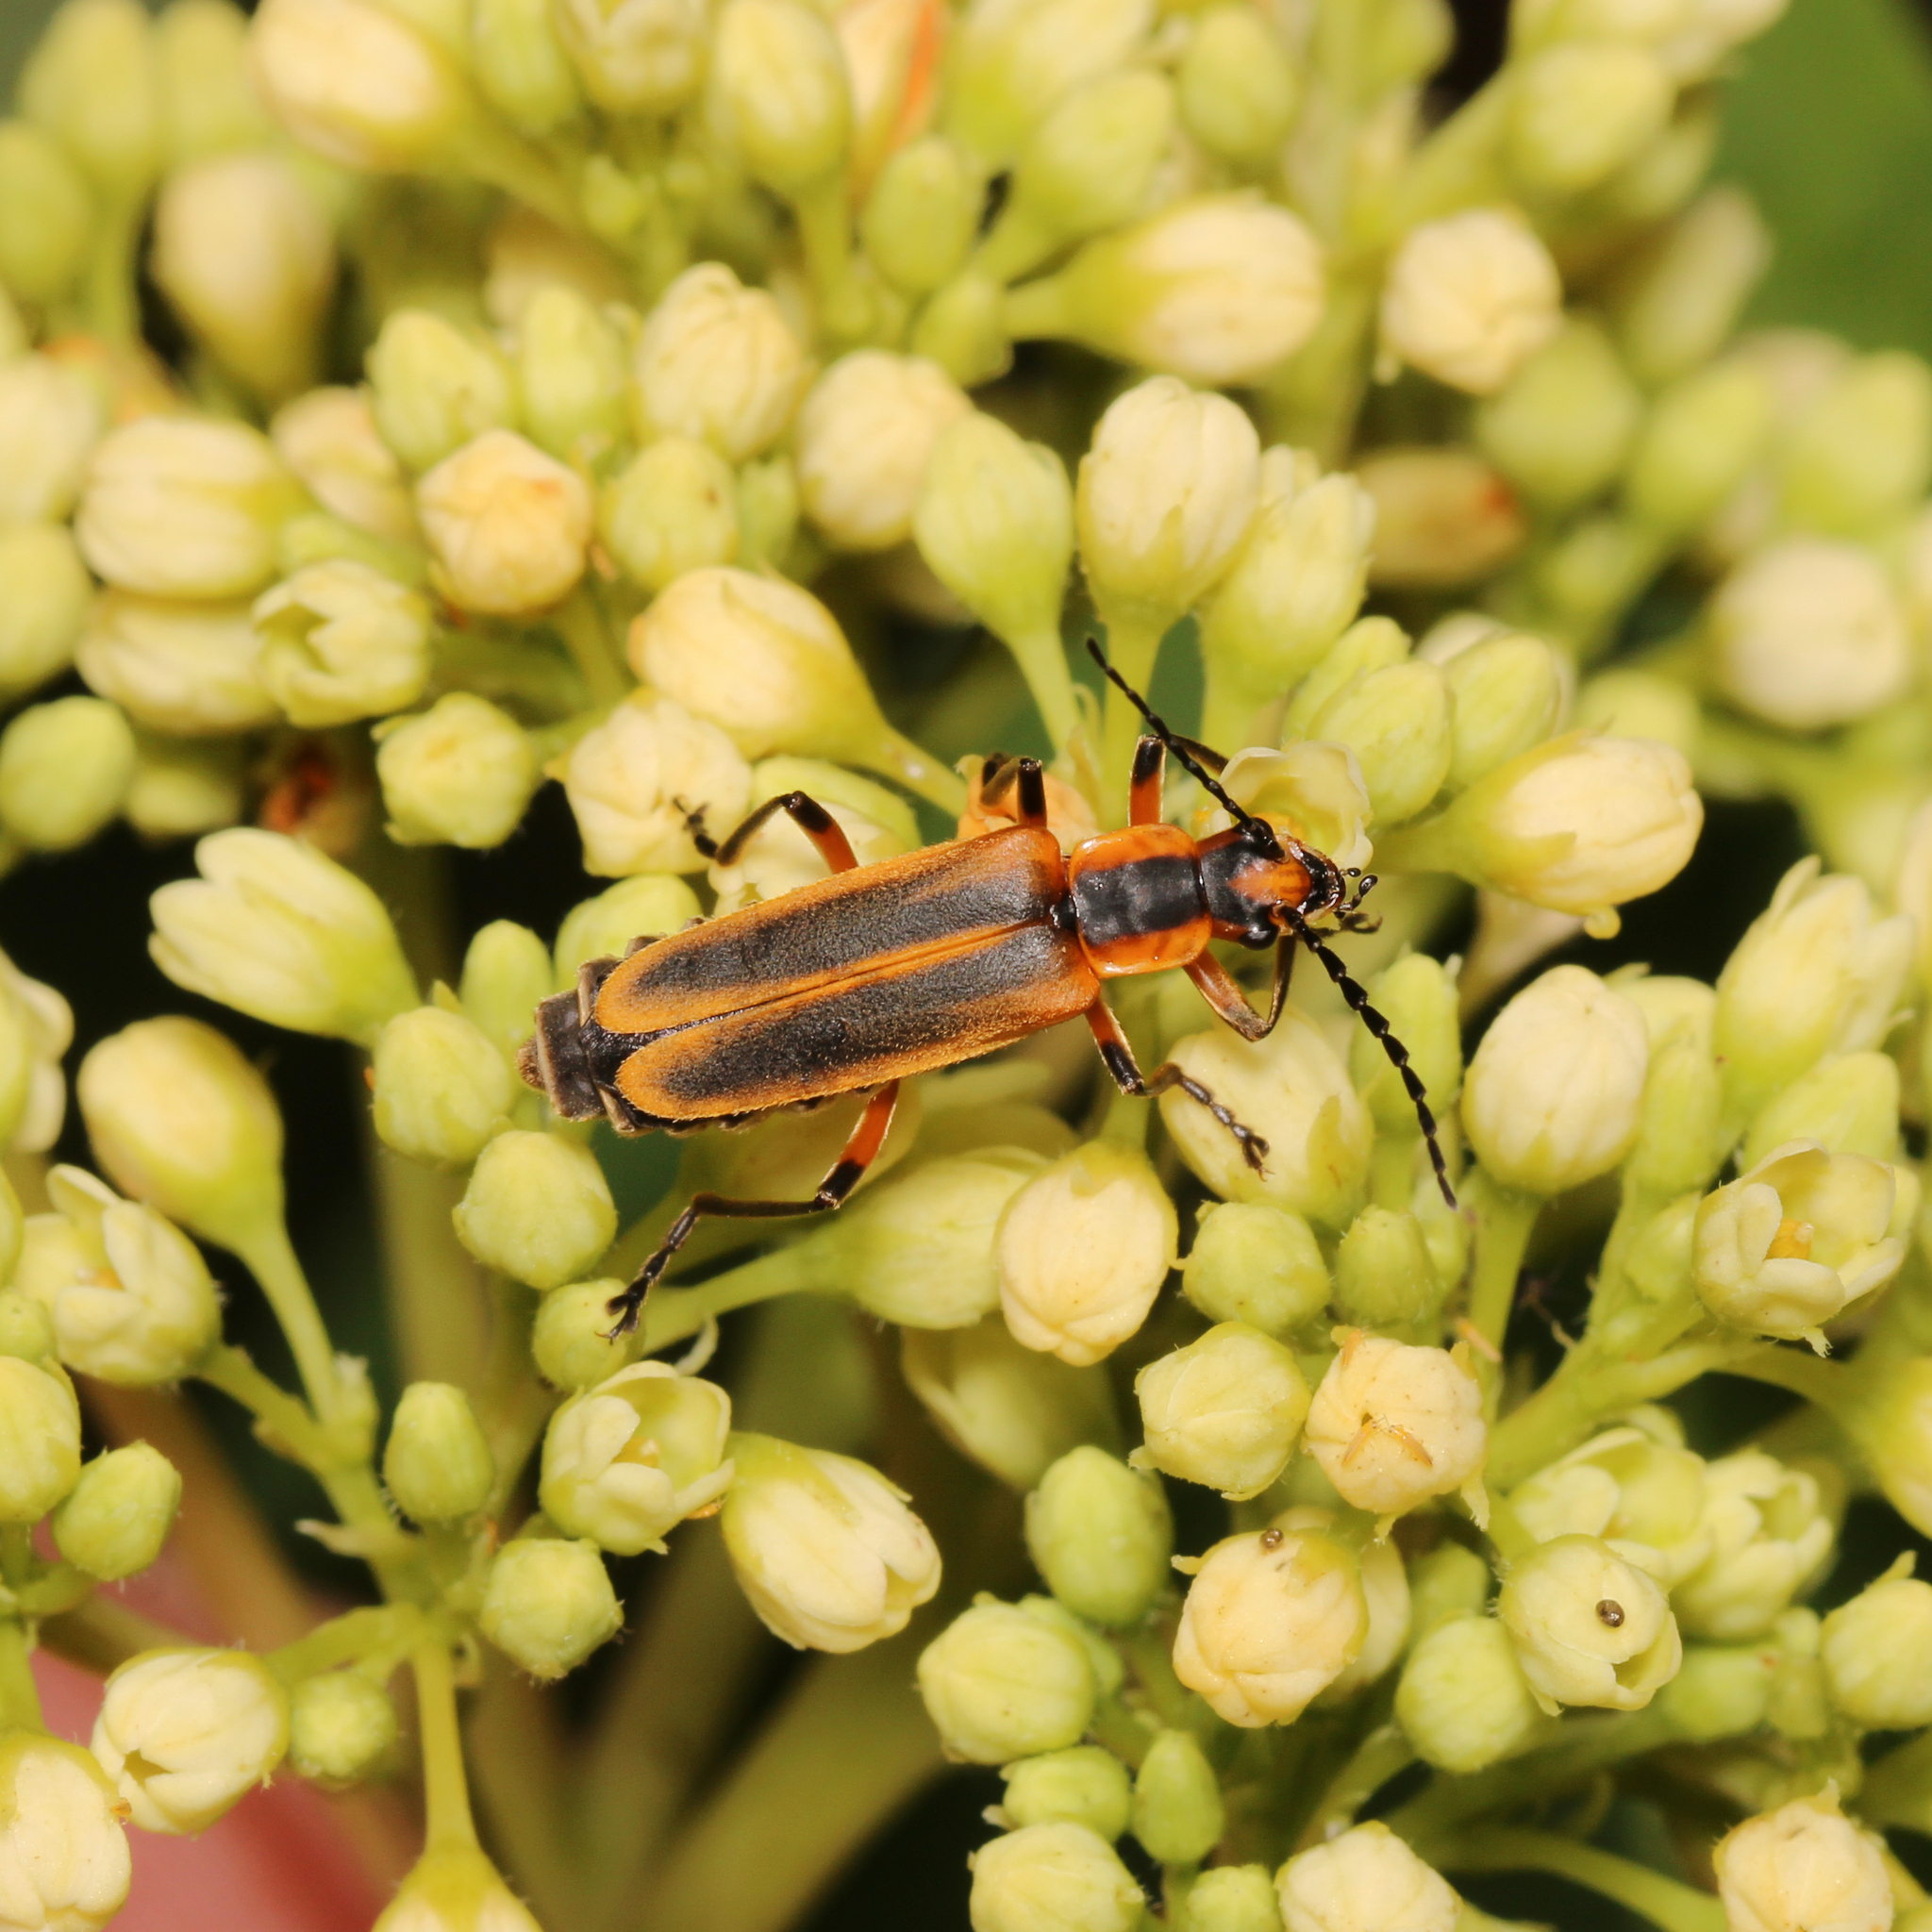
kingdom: Animalia
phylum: Arthropoda
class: Insecta
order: Coleoptera
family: Cantharidae
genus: Chauliognathus
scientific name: Chauliognathus marginatus
